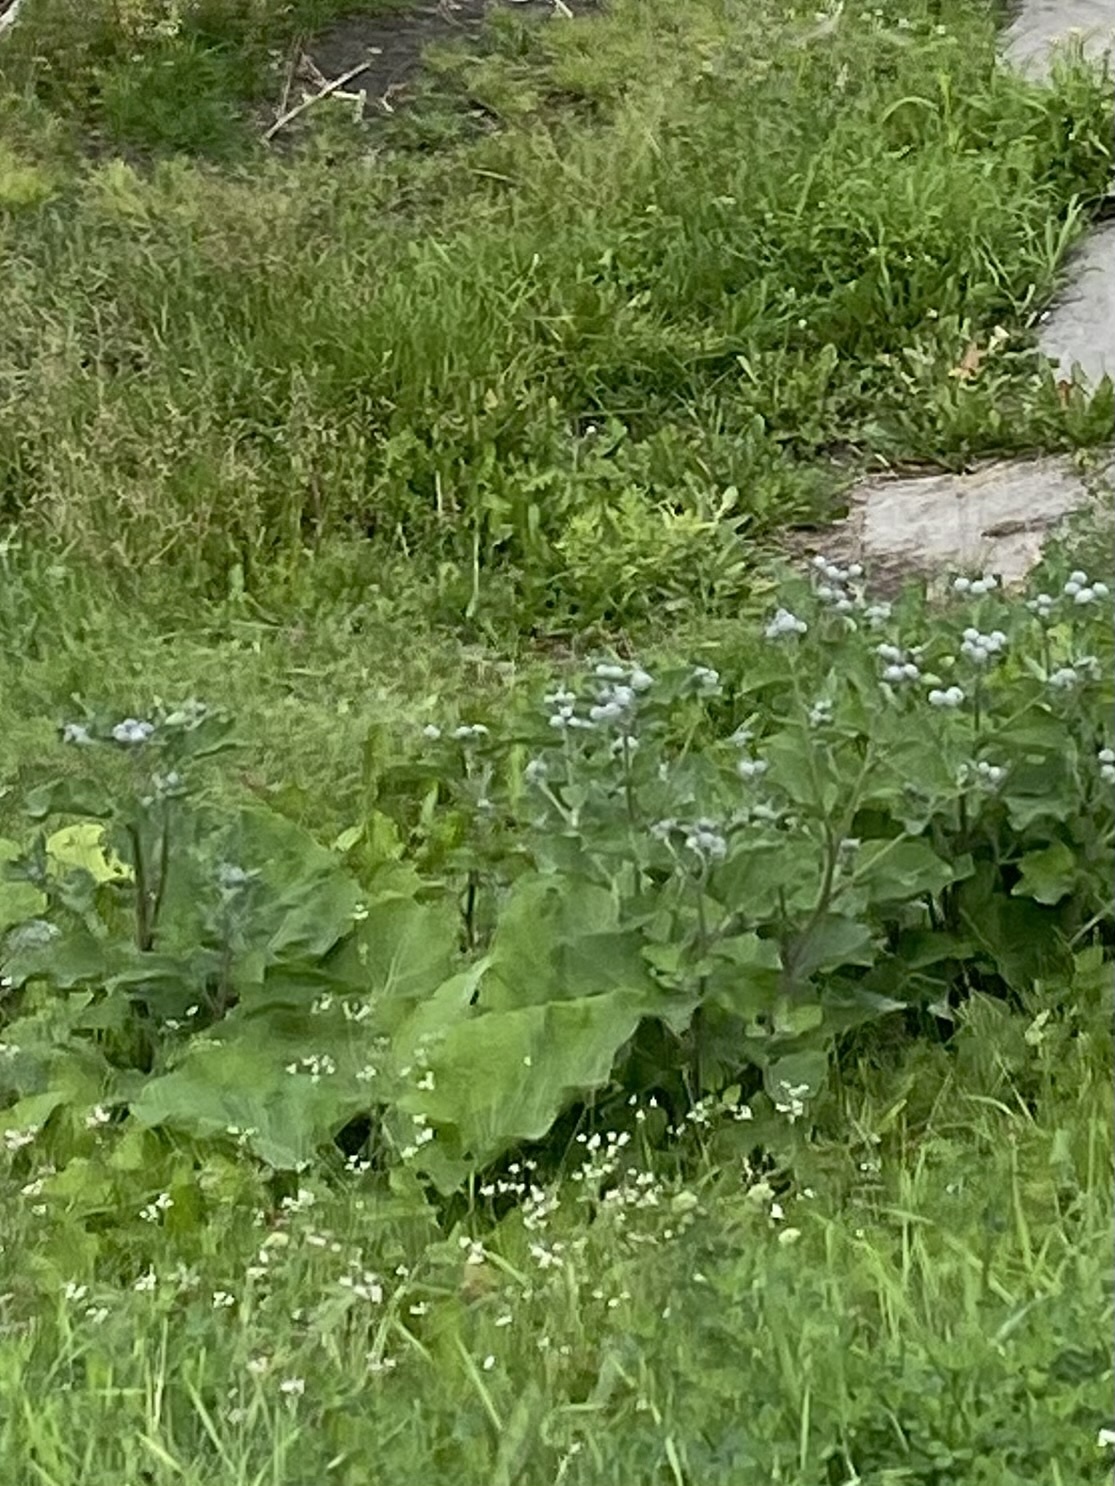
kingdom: Plantae
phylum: Tracheophyta
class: Magnoliopsida
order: Asterales
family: Asteraceae
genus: Arctium
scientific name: Arctium tomentosum
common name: Woolly burdock
